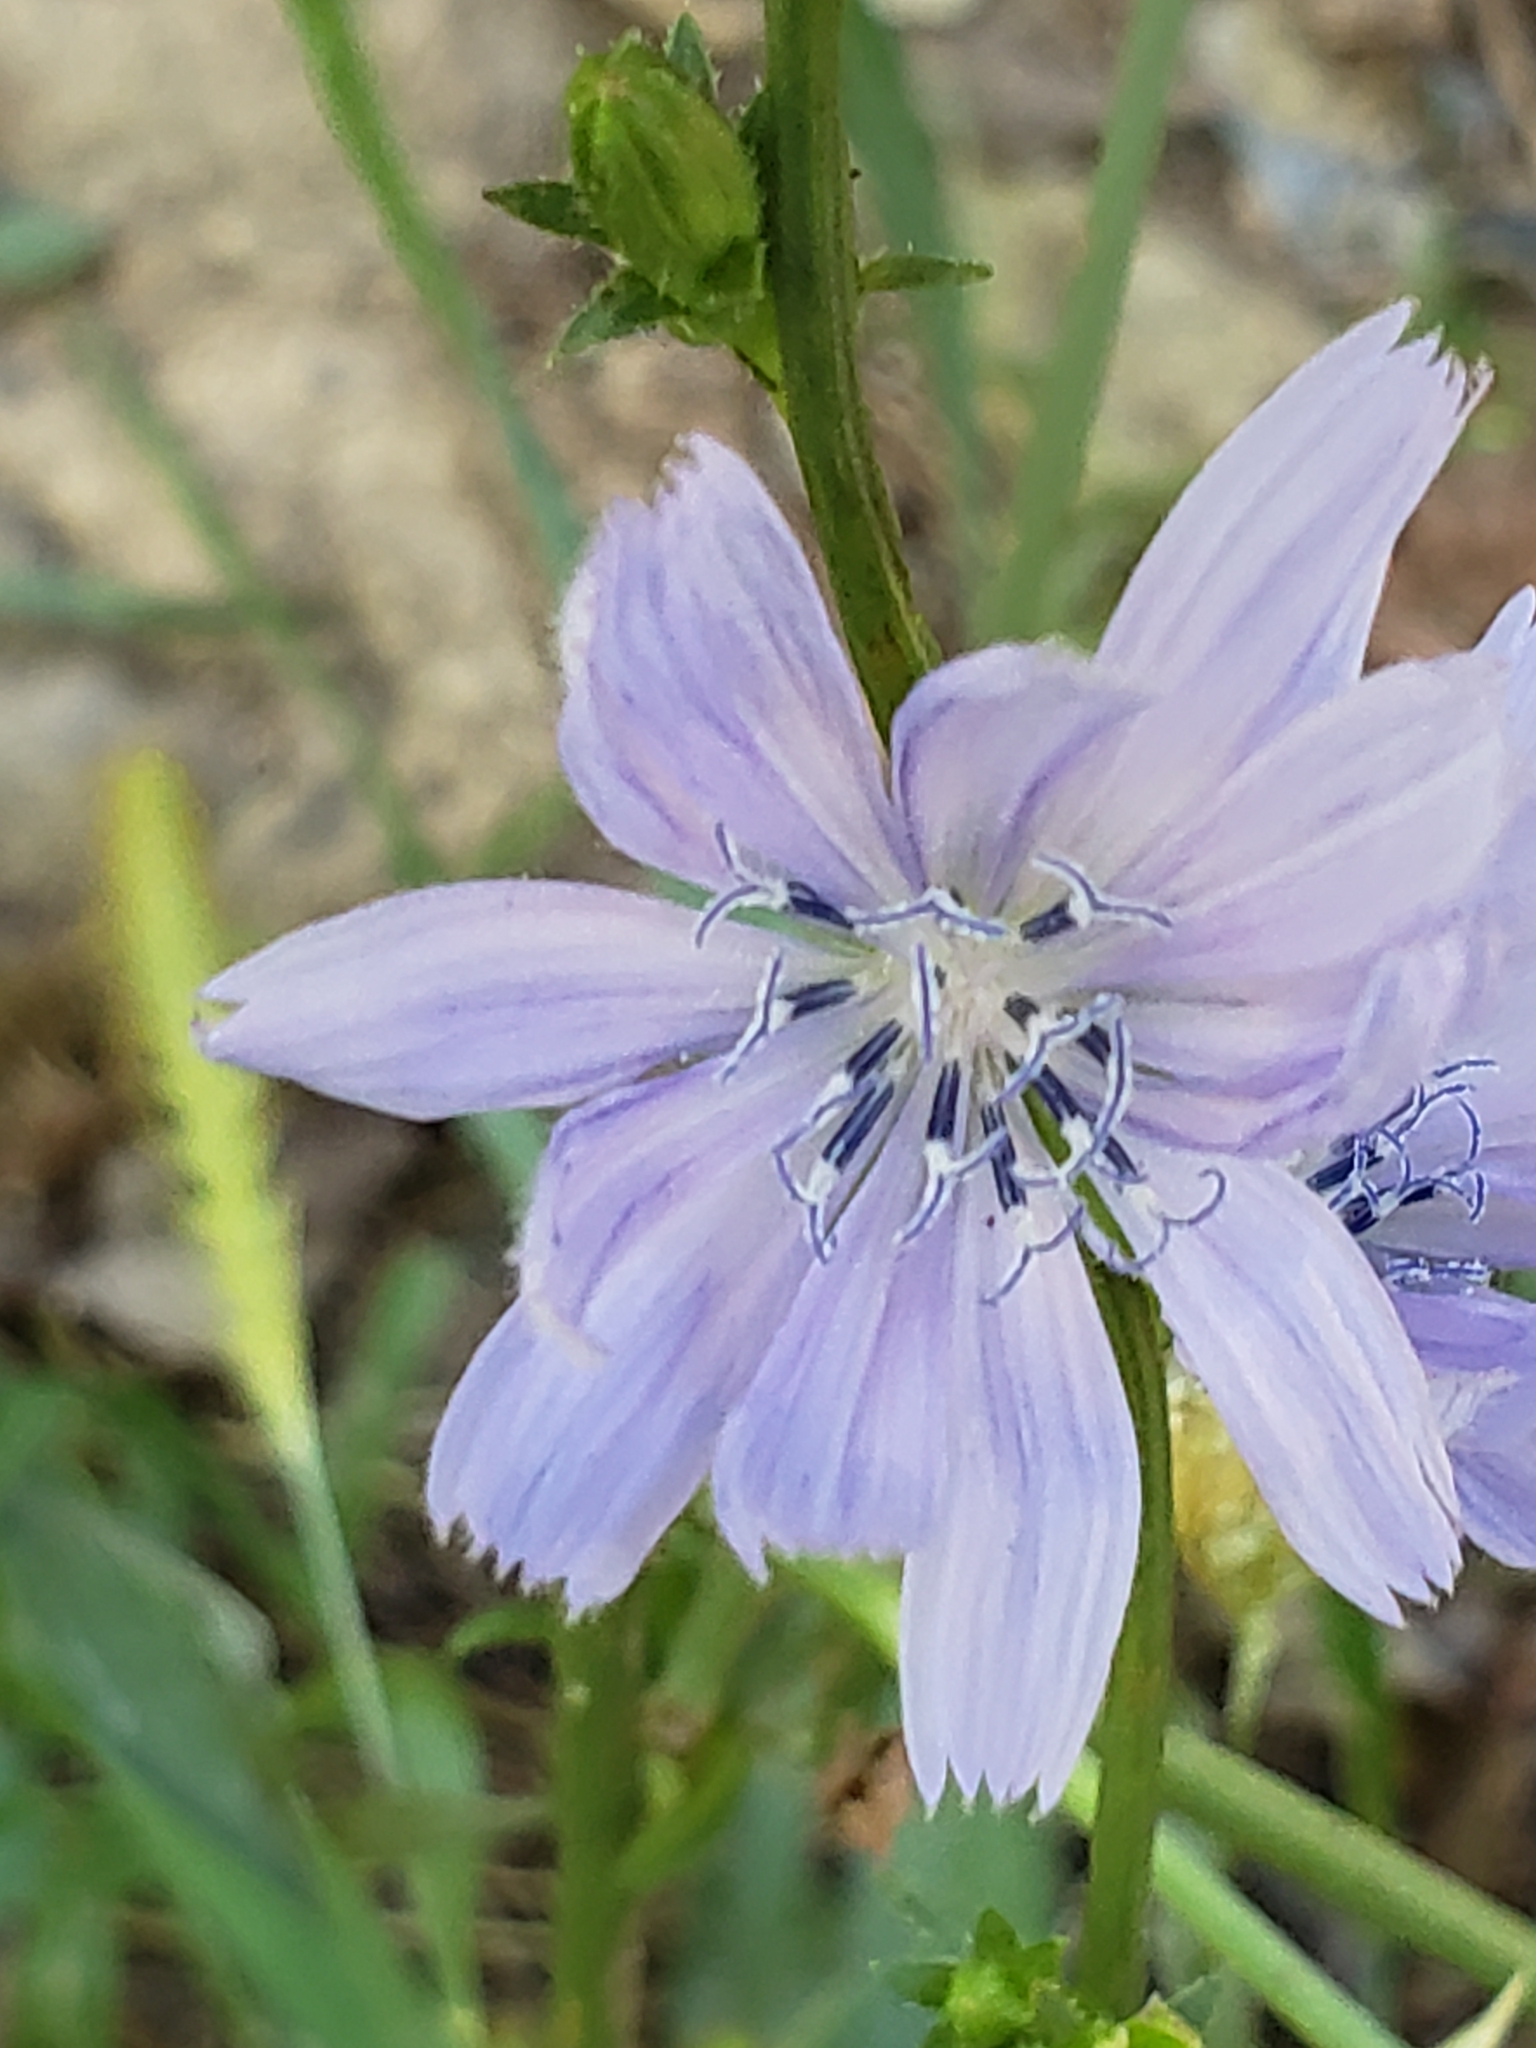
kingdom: Plantae
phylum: Tracheophyta
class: Magnoliopsida
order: Asterales
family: Asteraceae
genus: Cichorium
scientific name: Cichorium intybus
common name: Chicory
